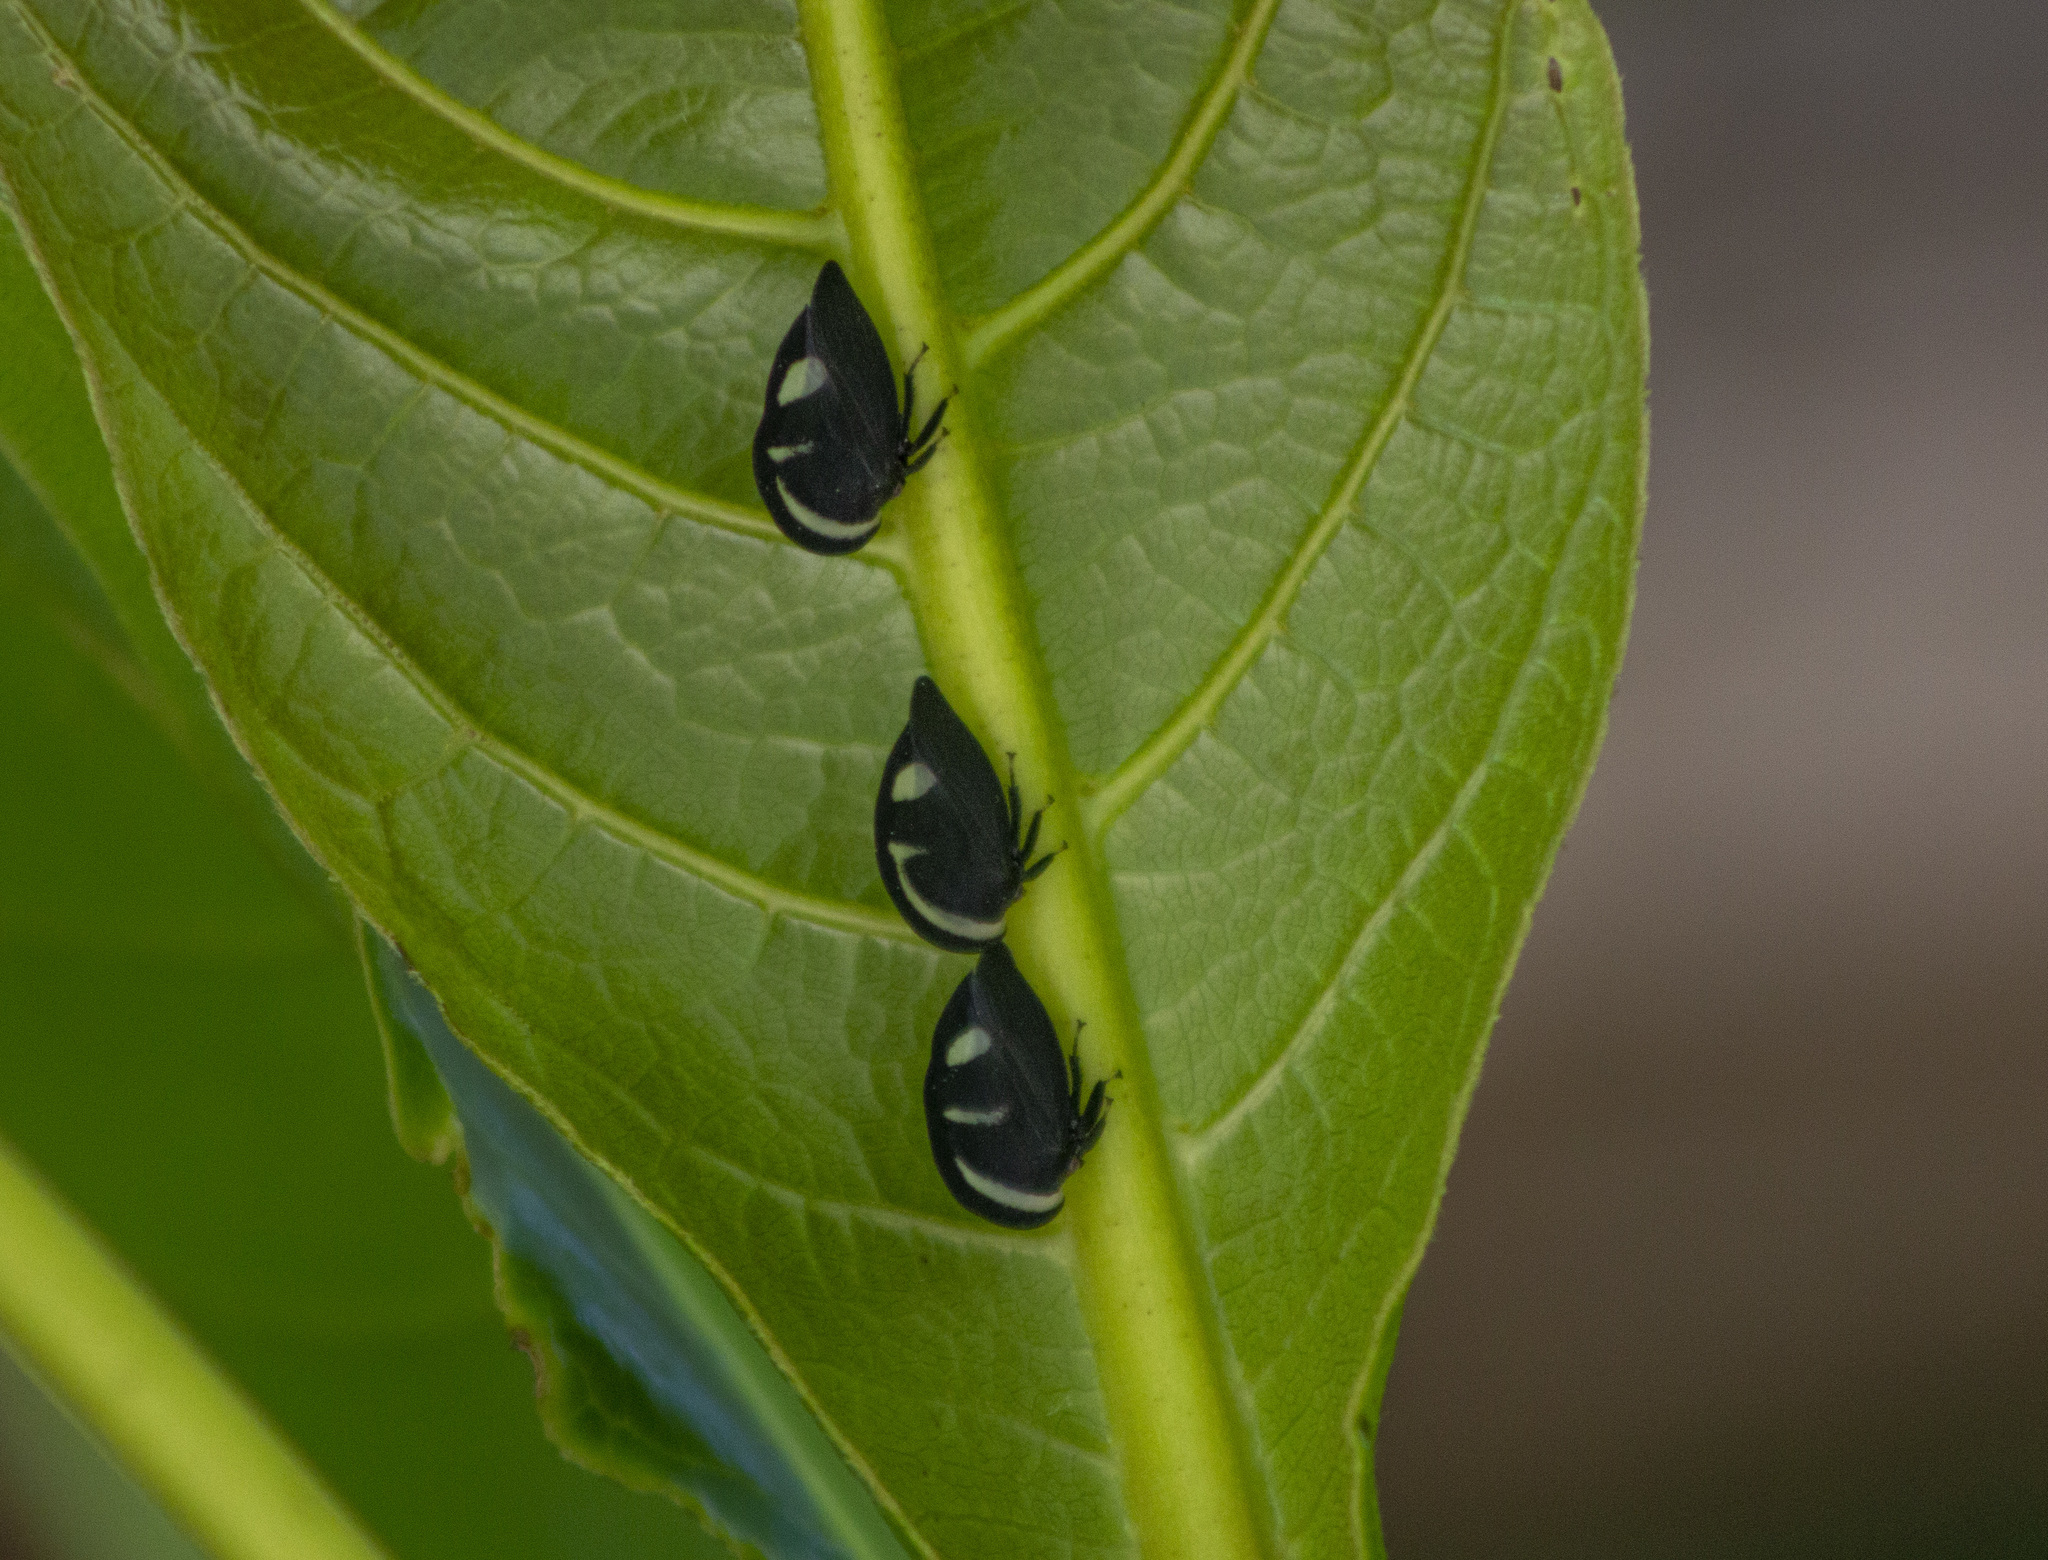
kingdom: Animalia
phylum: Arthropoda
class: Insecta
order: Hemiptera
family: Membracidae
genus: Membracis
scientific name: Membracis
